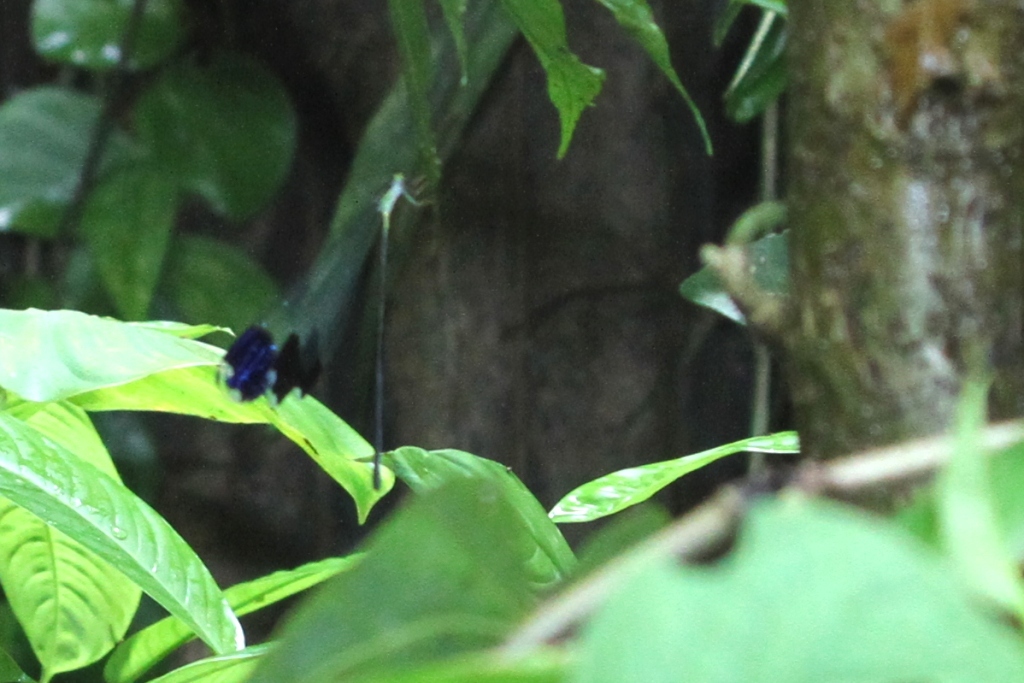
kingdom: Animalia
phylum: Arthropoda
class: Insecta
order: Odonata
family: Coenagrionidae
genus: Megaloprepus
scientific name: Megaloprepus diaboli
